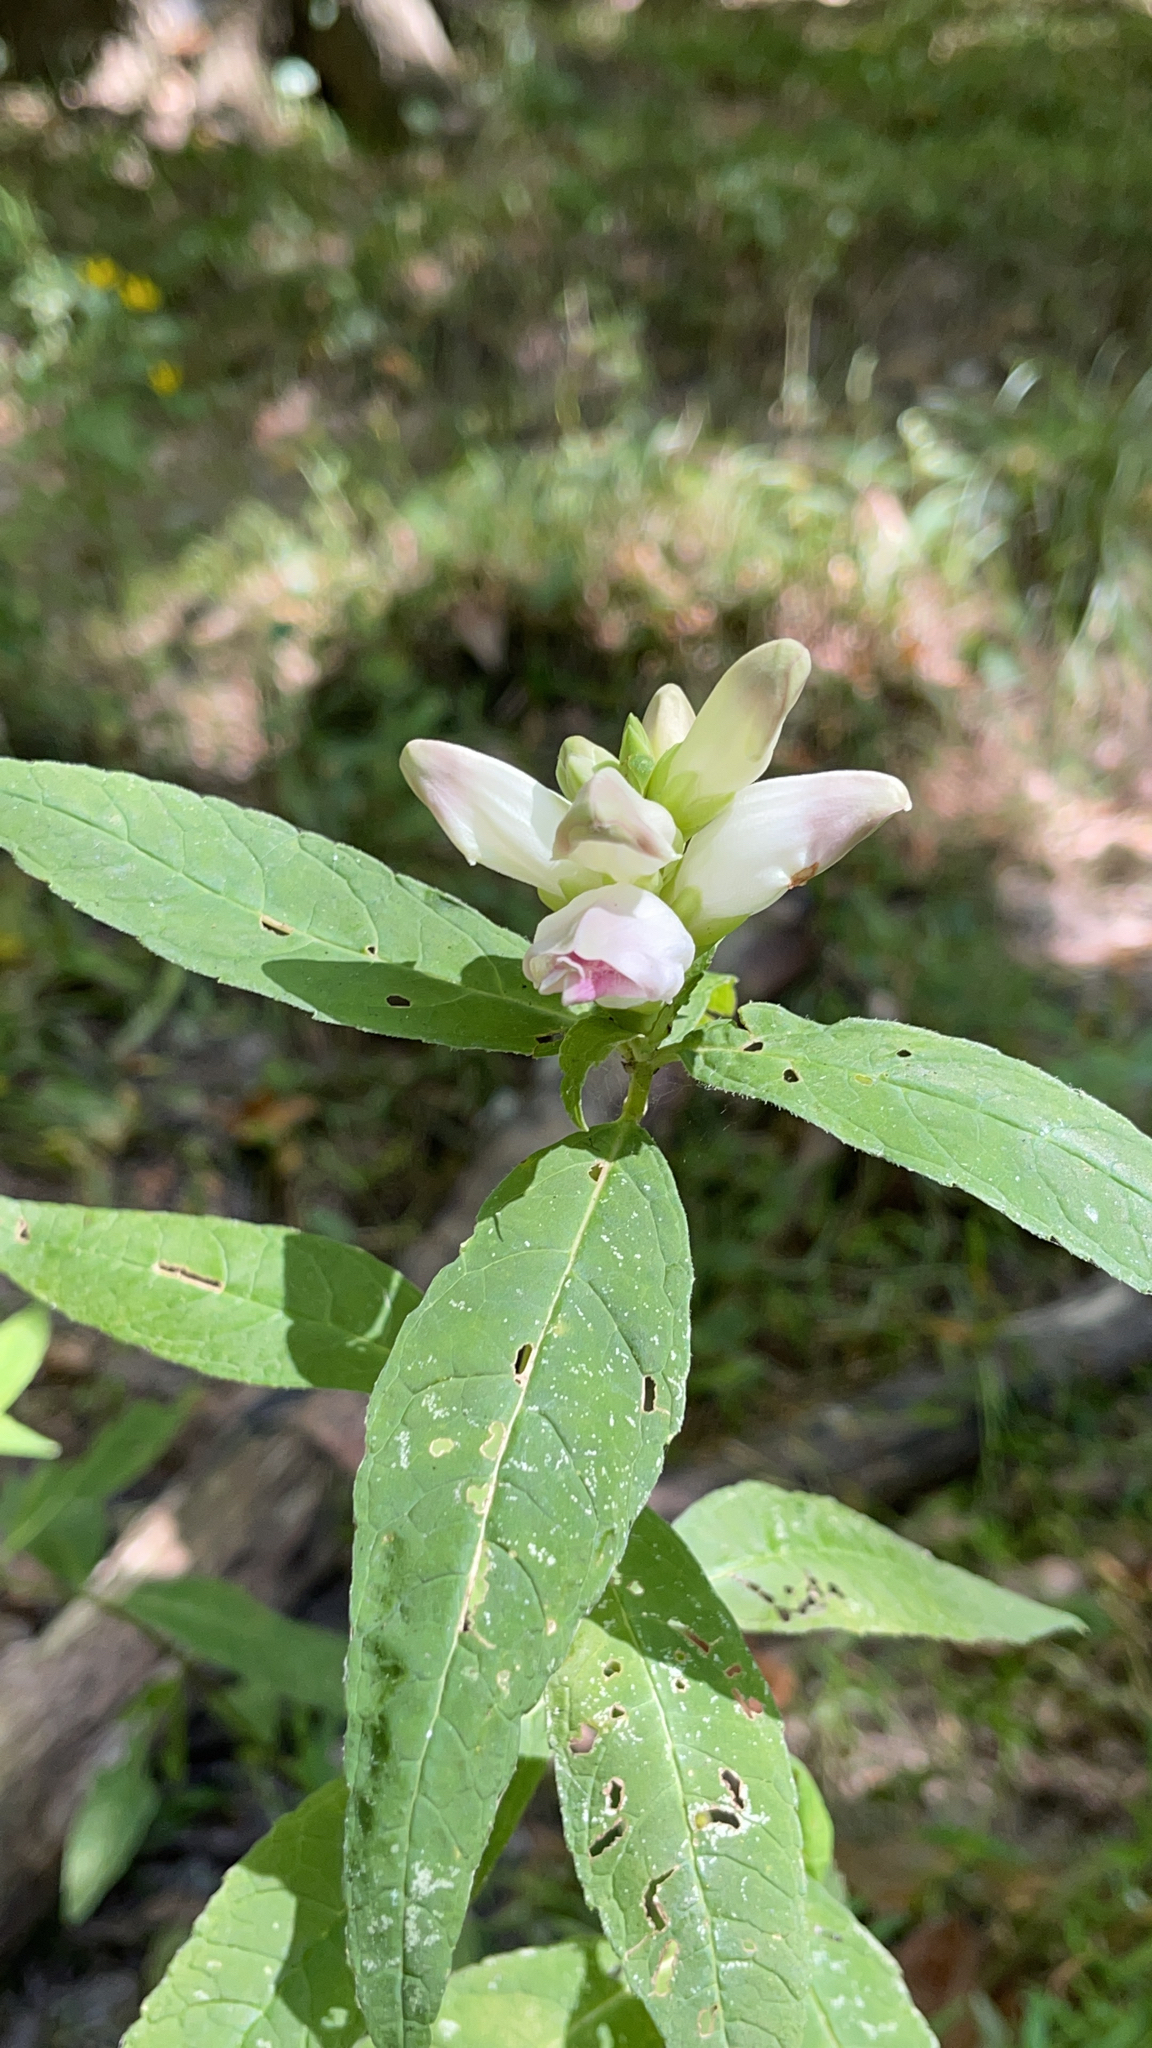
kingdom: Plantae
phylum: Tracheophyta
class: Magnoliopsida
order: Lamiales
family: Plantaginaceae
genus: Chelone
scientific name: Chelone glabra
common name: Snakehead
